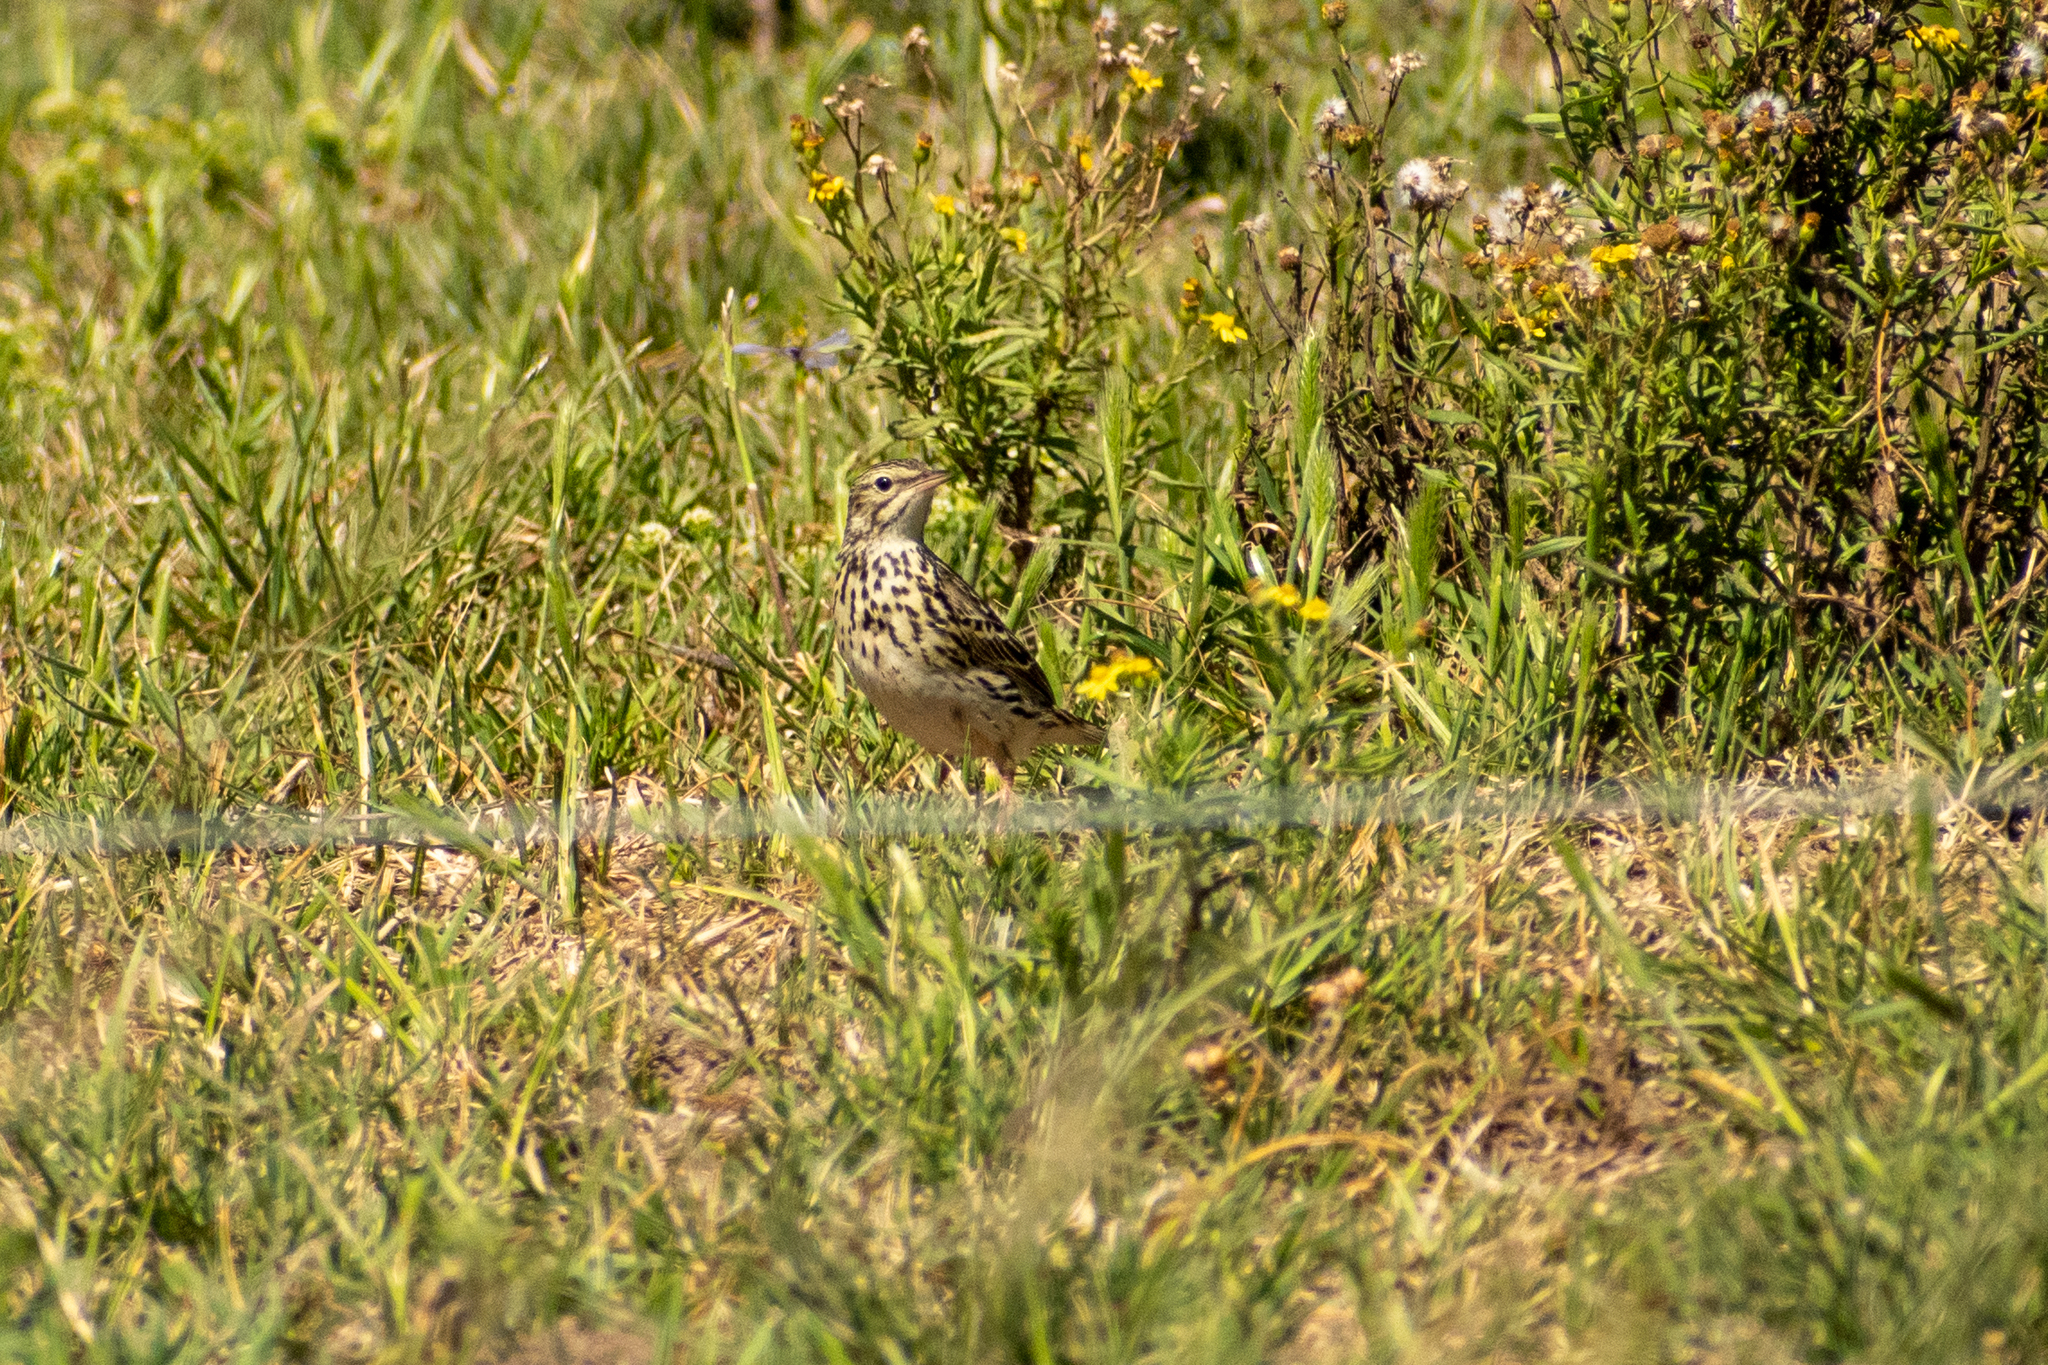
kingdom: Animalia
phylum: Chordata
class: Aves
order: Passeriformes
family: Motacillidae
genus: Anthus
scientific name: Anthus correndera
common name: Correndera pipit
